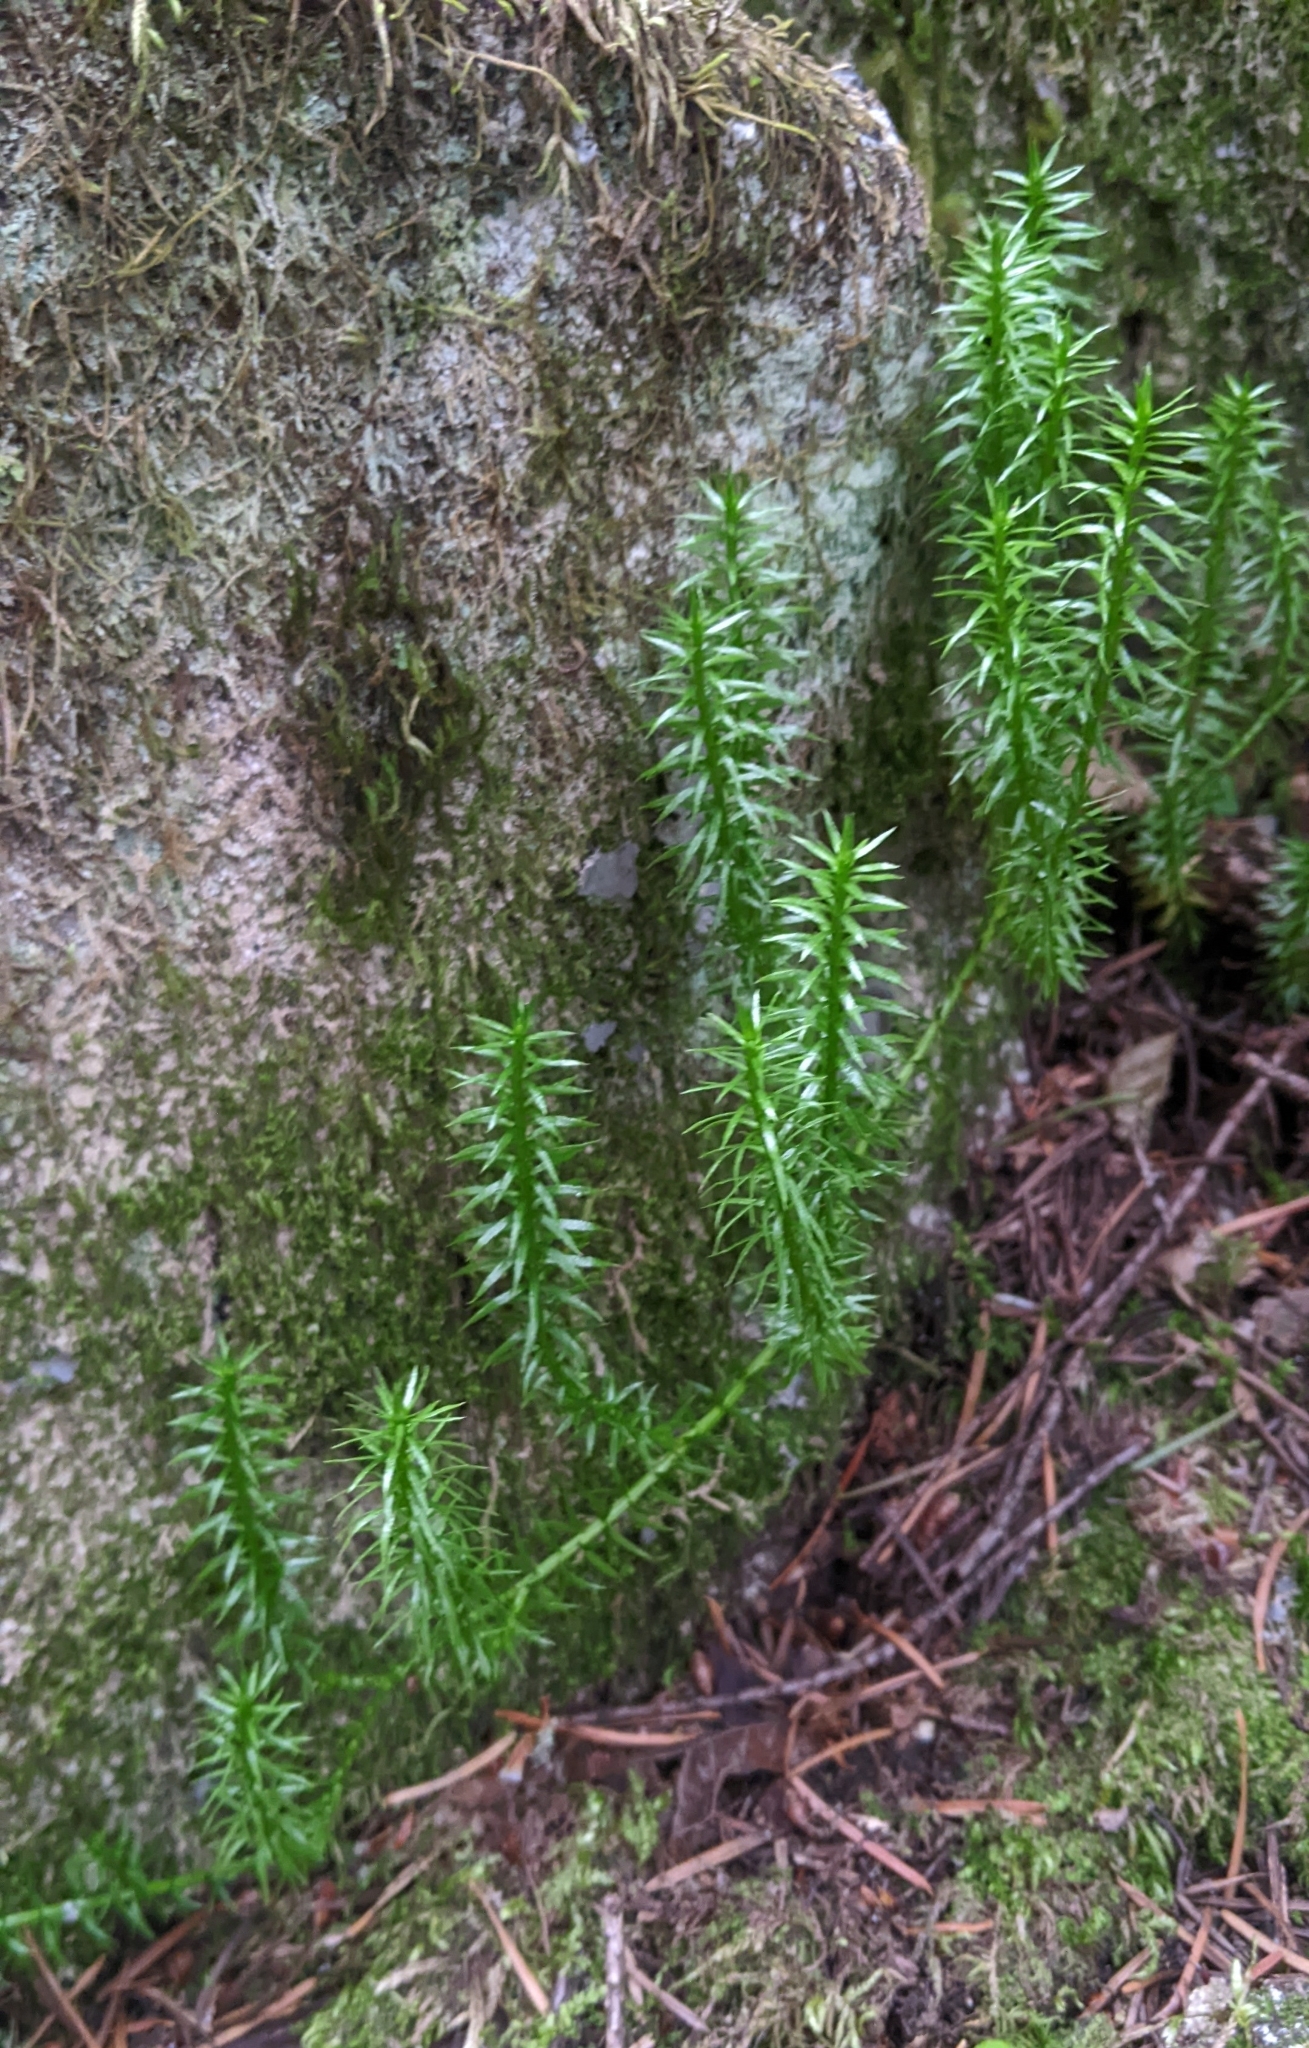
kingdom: Plantae
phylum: Tracheophyta
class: Lycopodiopsida
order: Lycopodiales
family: Lycopodiaceae
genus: Spinulum
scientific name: Spinulum annotinum
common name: Interrupted club-moss
